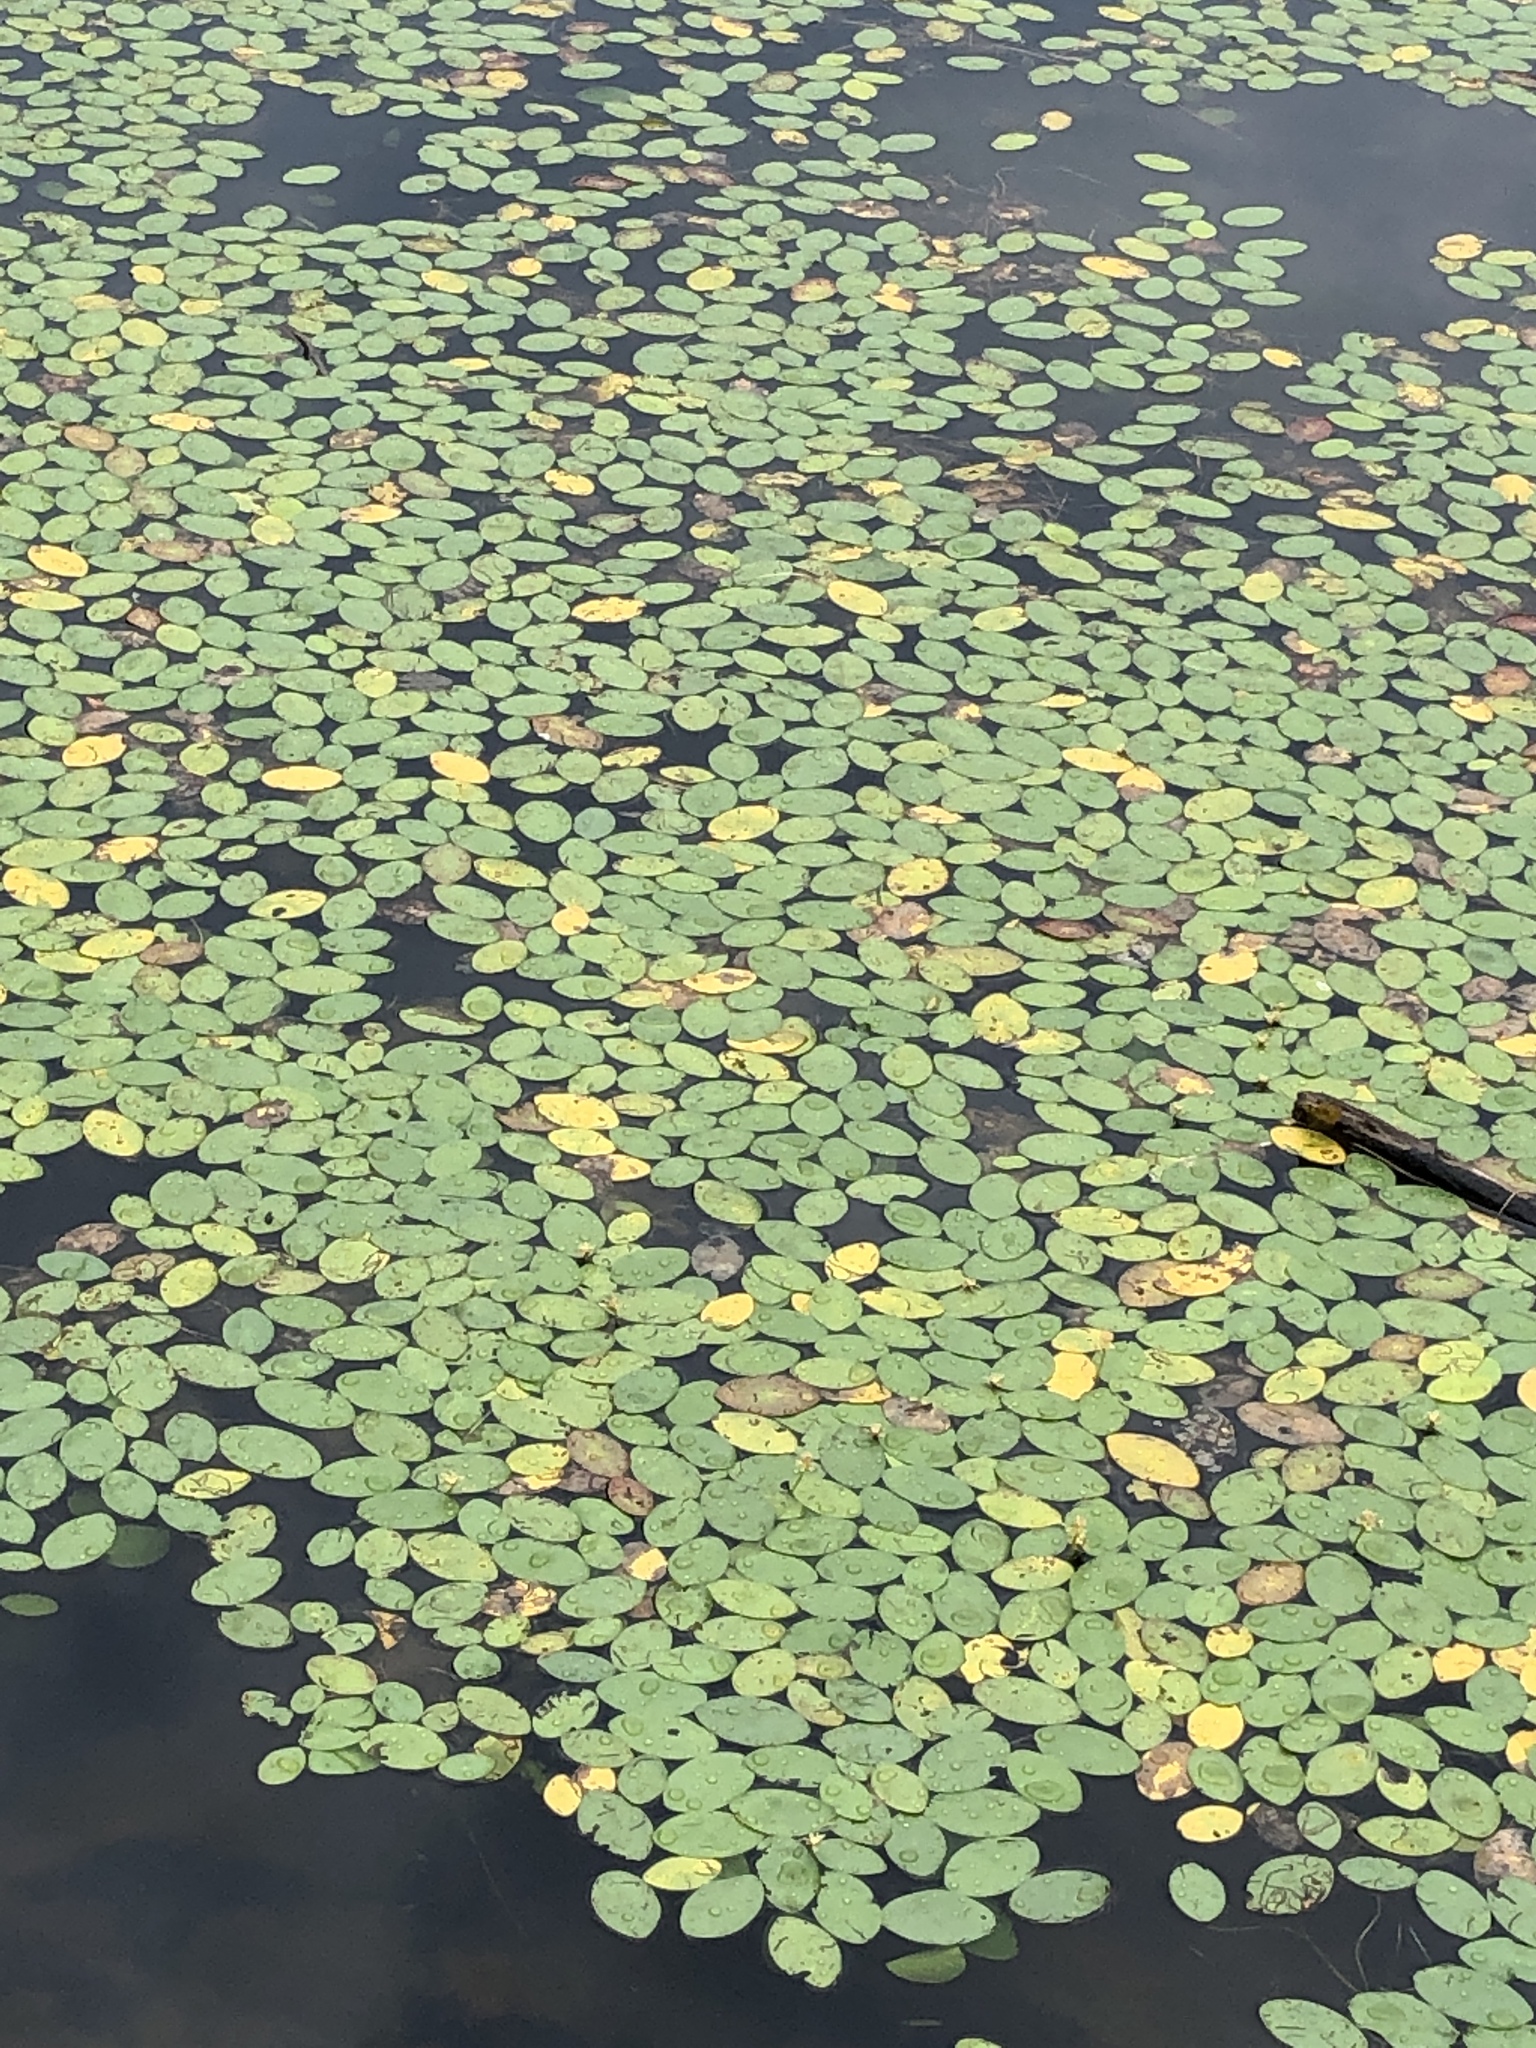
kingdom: Plantae
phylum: Tracheophyta
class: Magnoliopsida
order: Nymphaeales
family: Cabombaceae
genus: Brasenia
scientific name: Brasenia schreberi
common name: Water-shield
